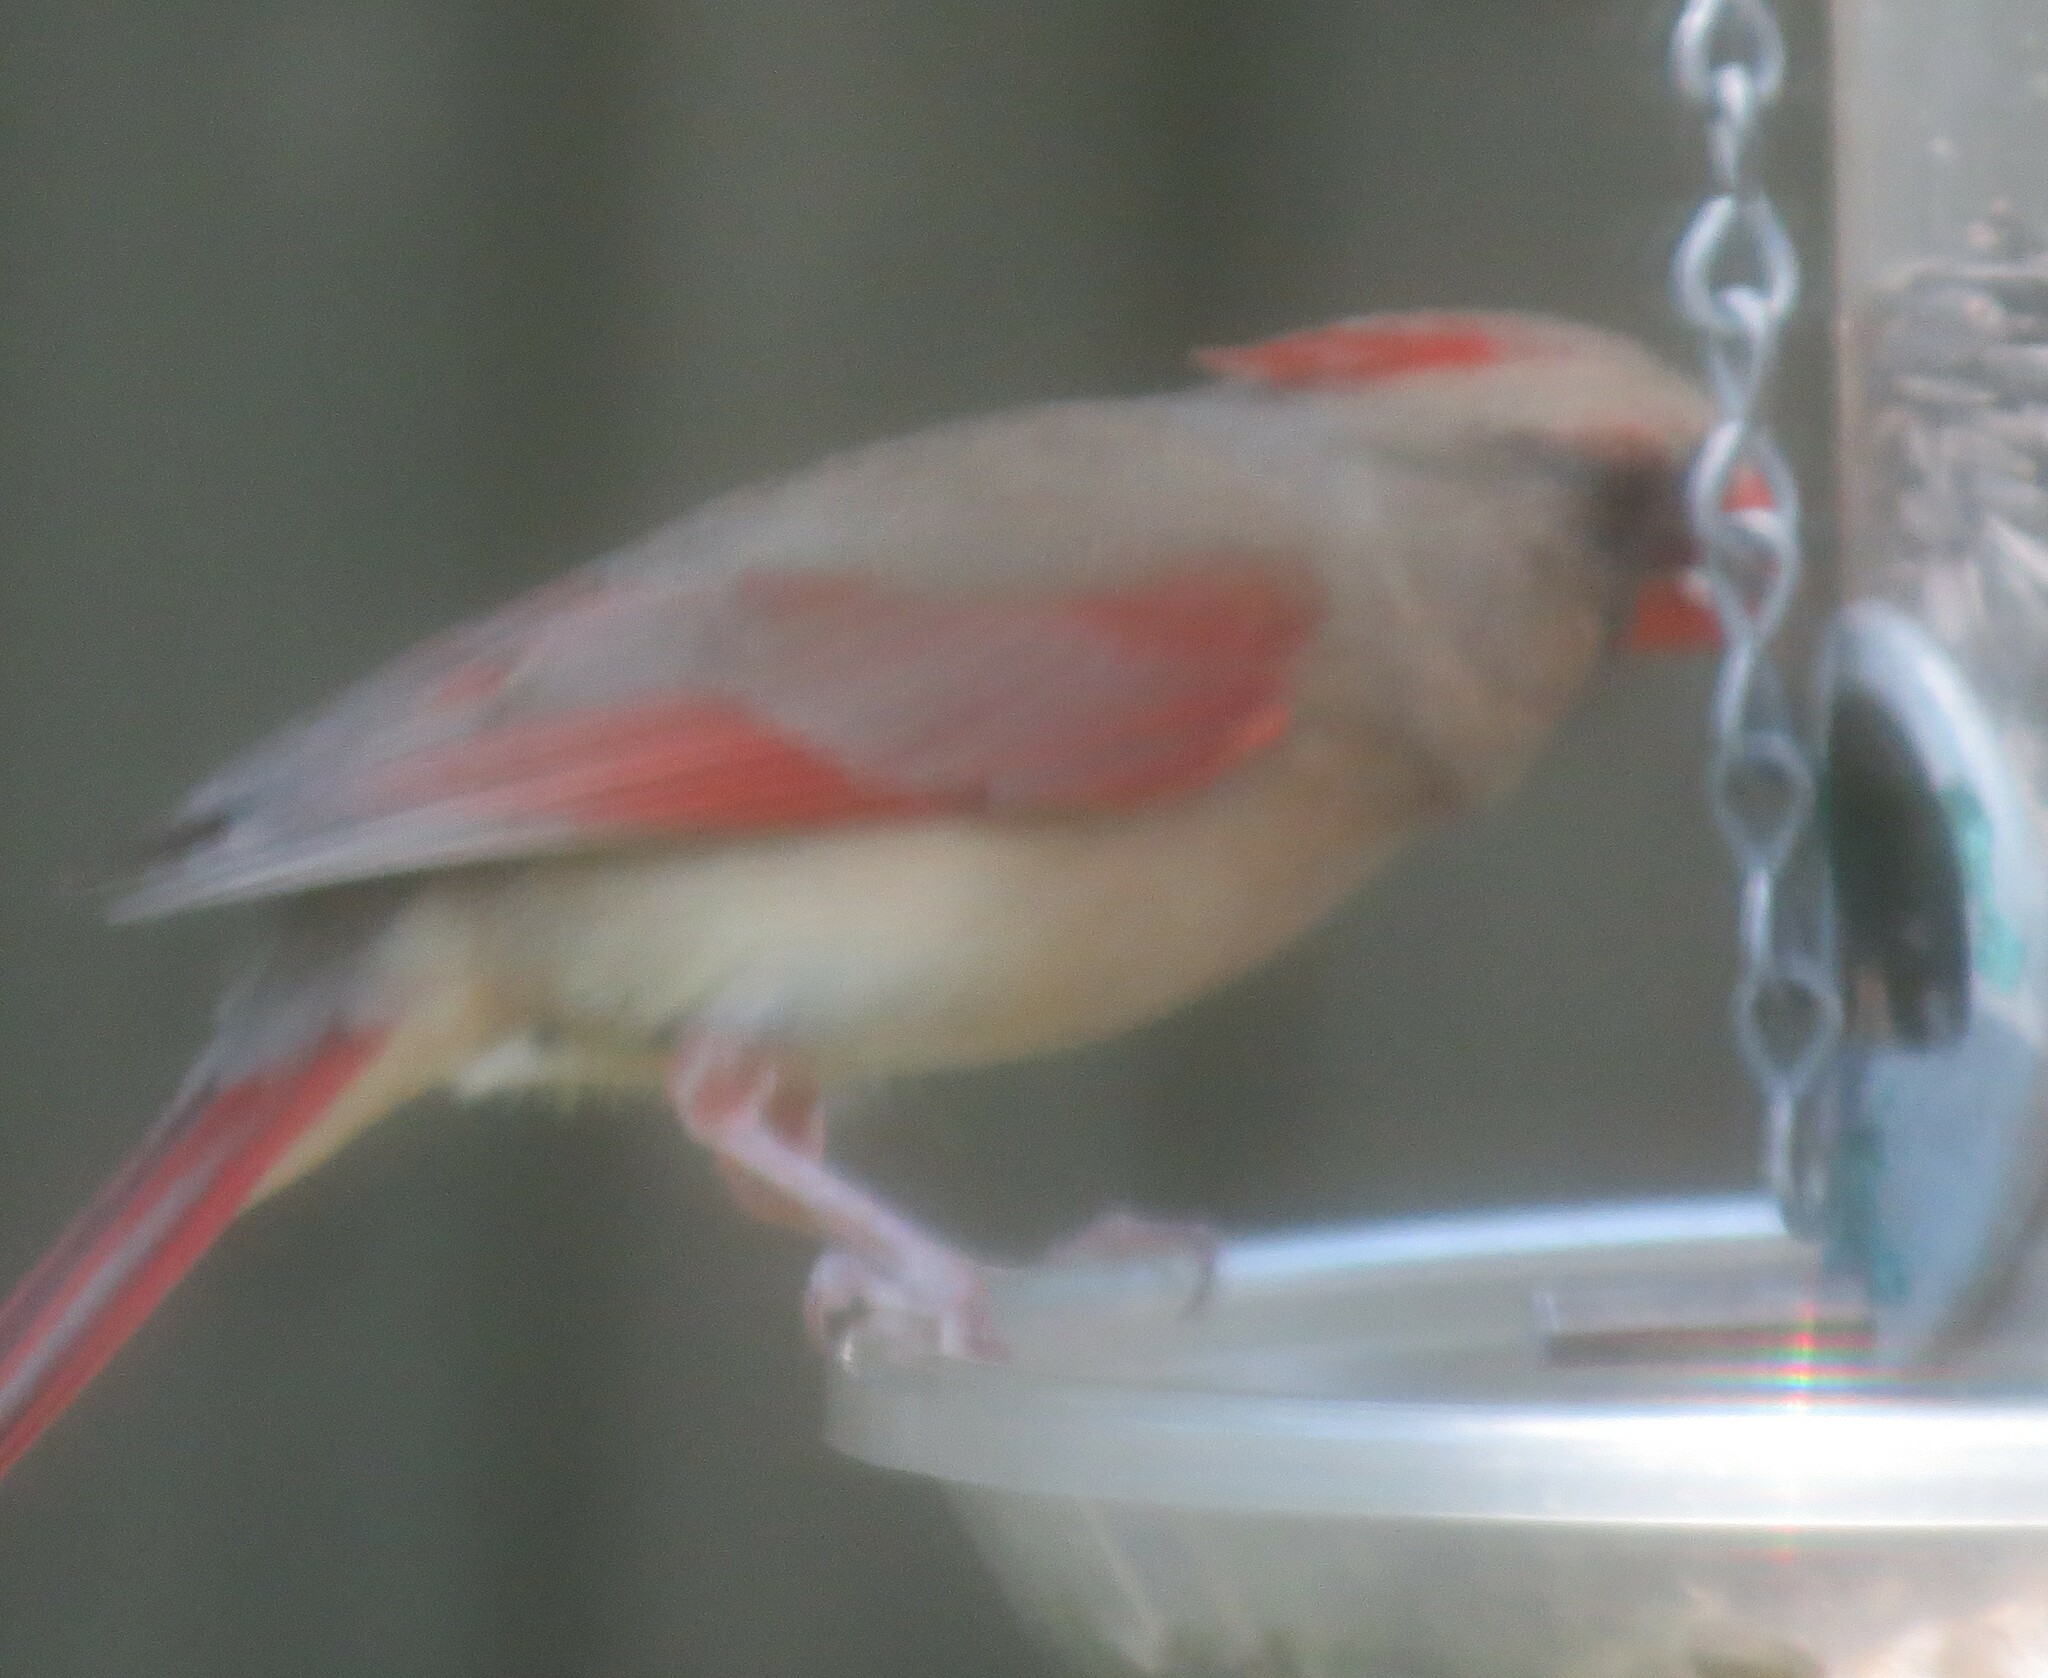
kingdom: Animalia
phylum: Chordata
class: Aves
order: Passeriformes
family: Cardinalidae
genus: Cardinalis
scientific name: Cardinalis cardinalis
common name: Northern cardinal
